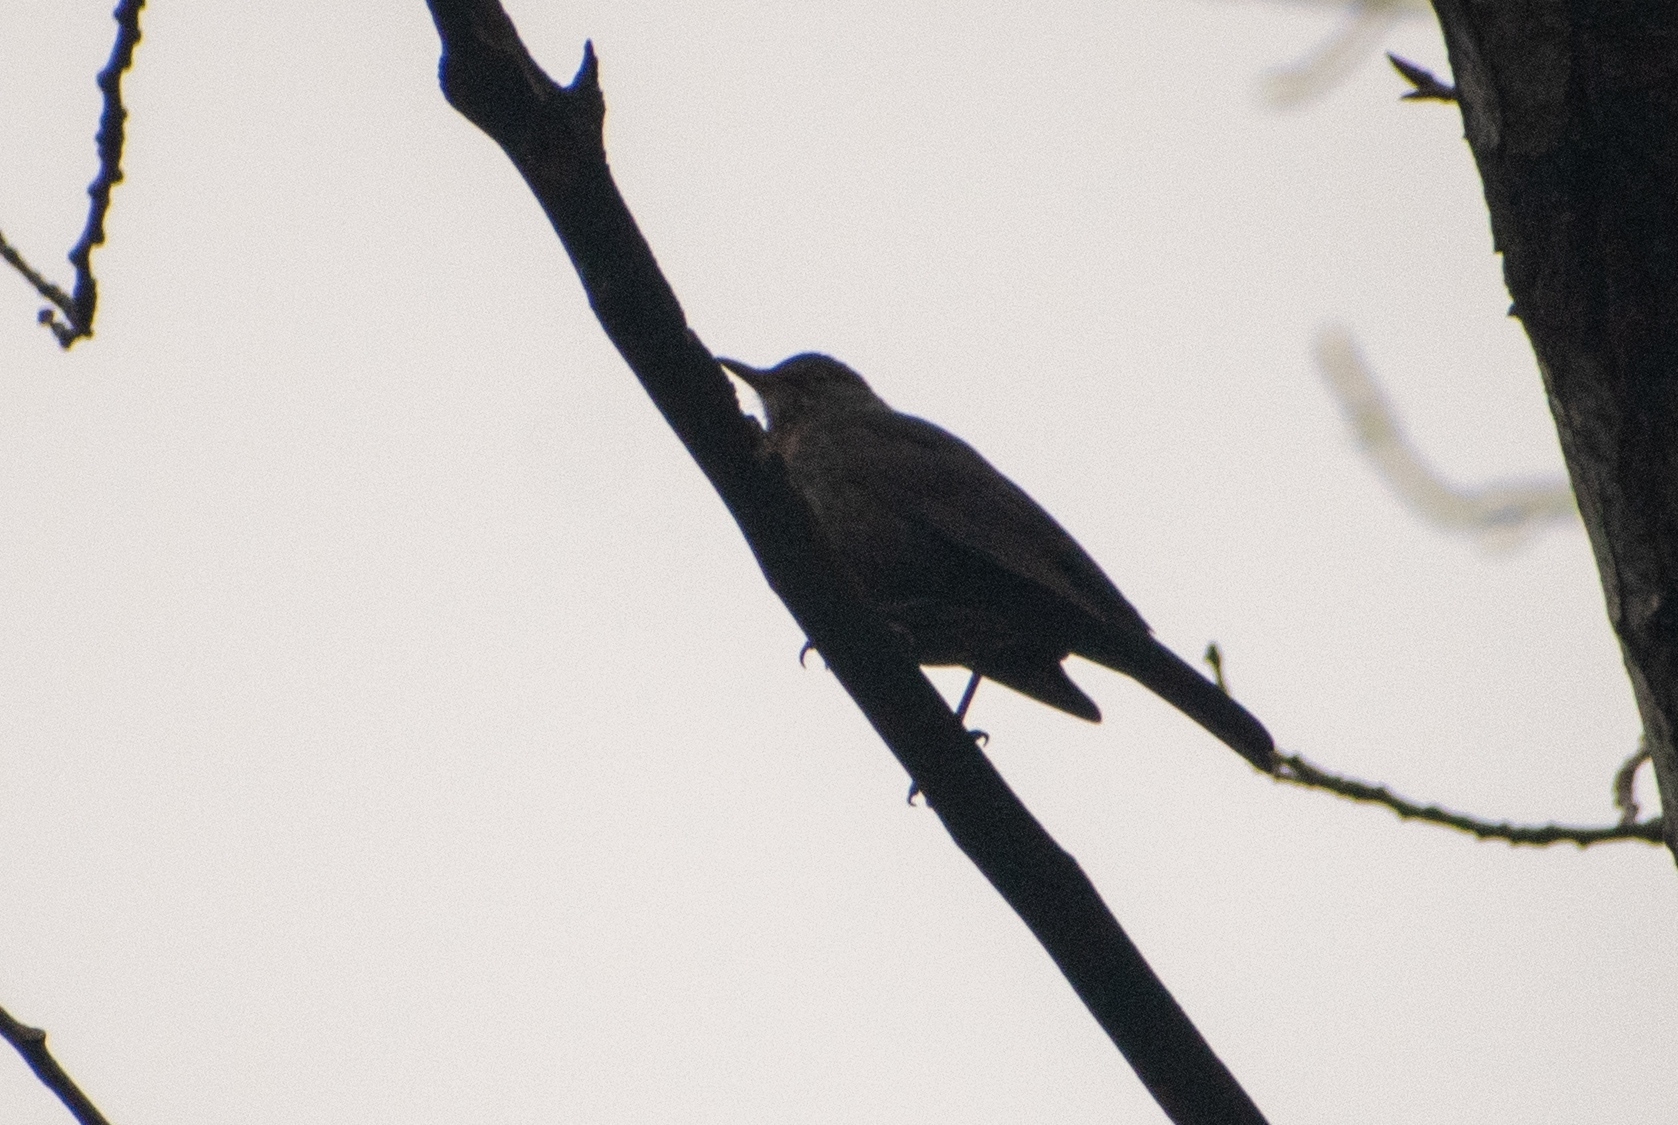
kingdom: Animalia
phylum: Chordata
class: Aves
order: Passeriformes
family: Turdidae
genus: Turdus
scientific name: Turdus merula
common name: Common blackbird
